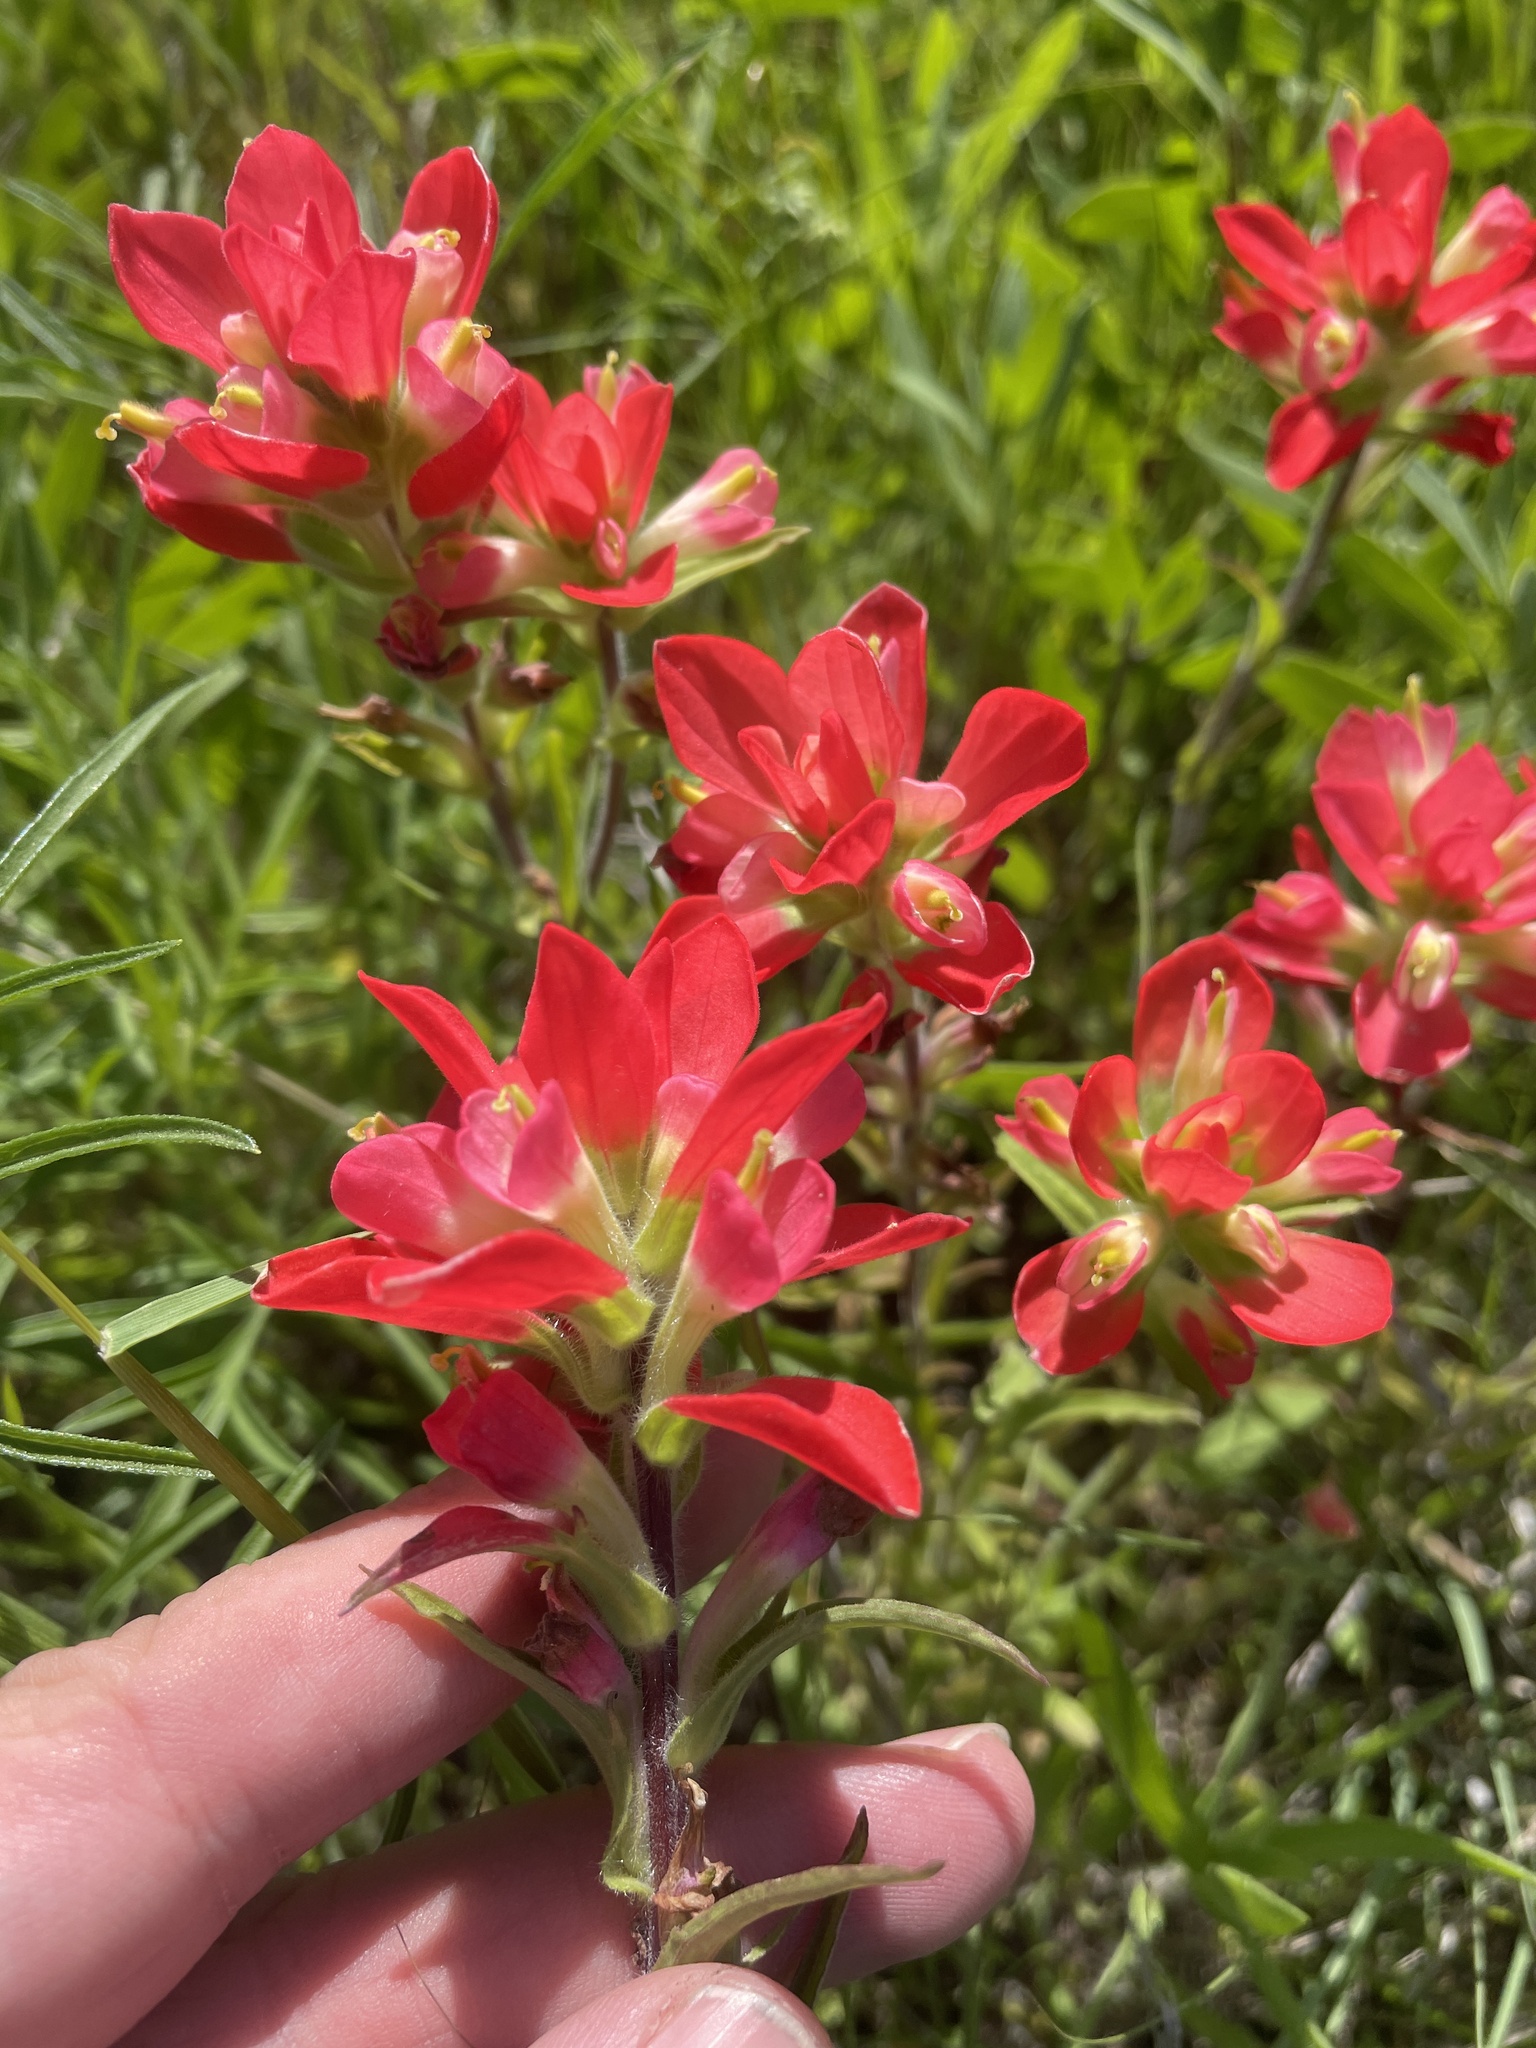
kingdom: Plantae
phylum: Tracheophyta
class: Magnoliopsida
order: Lamiales
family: Orobanchaceae
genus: Castilleja
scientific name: Castilleja indivisa
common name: Texas paintbrush
